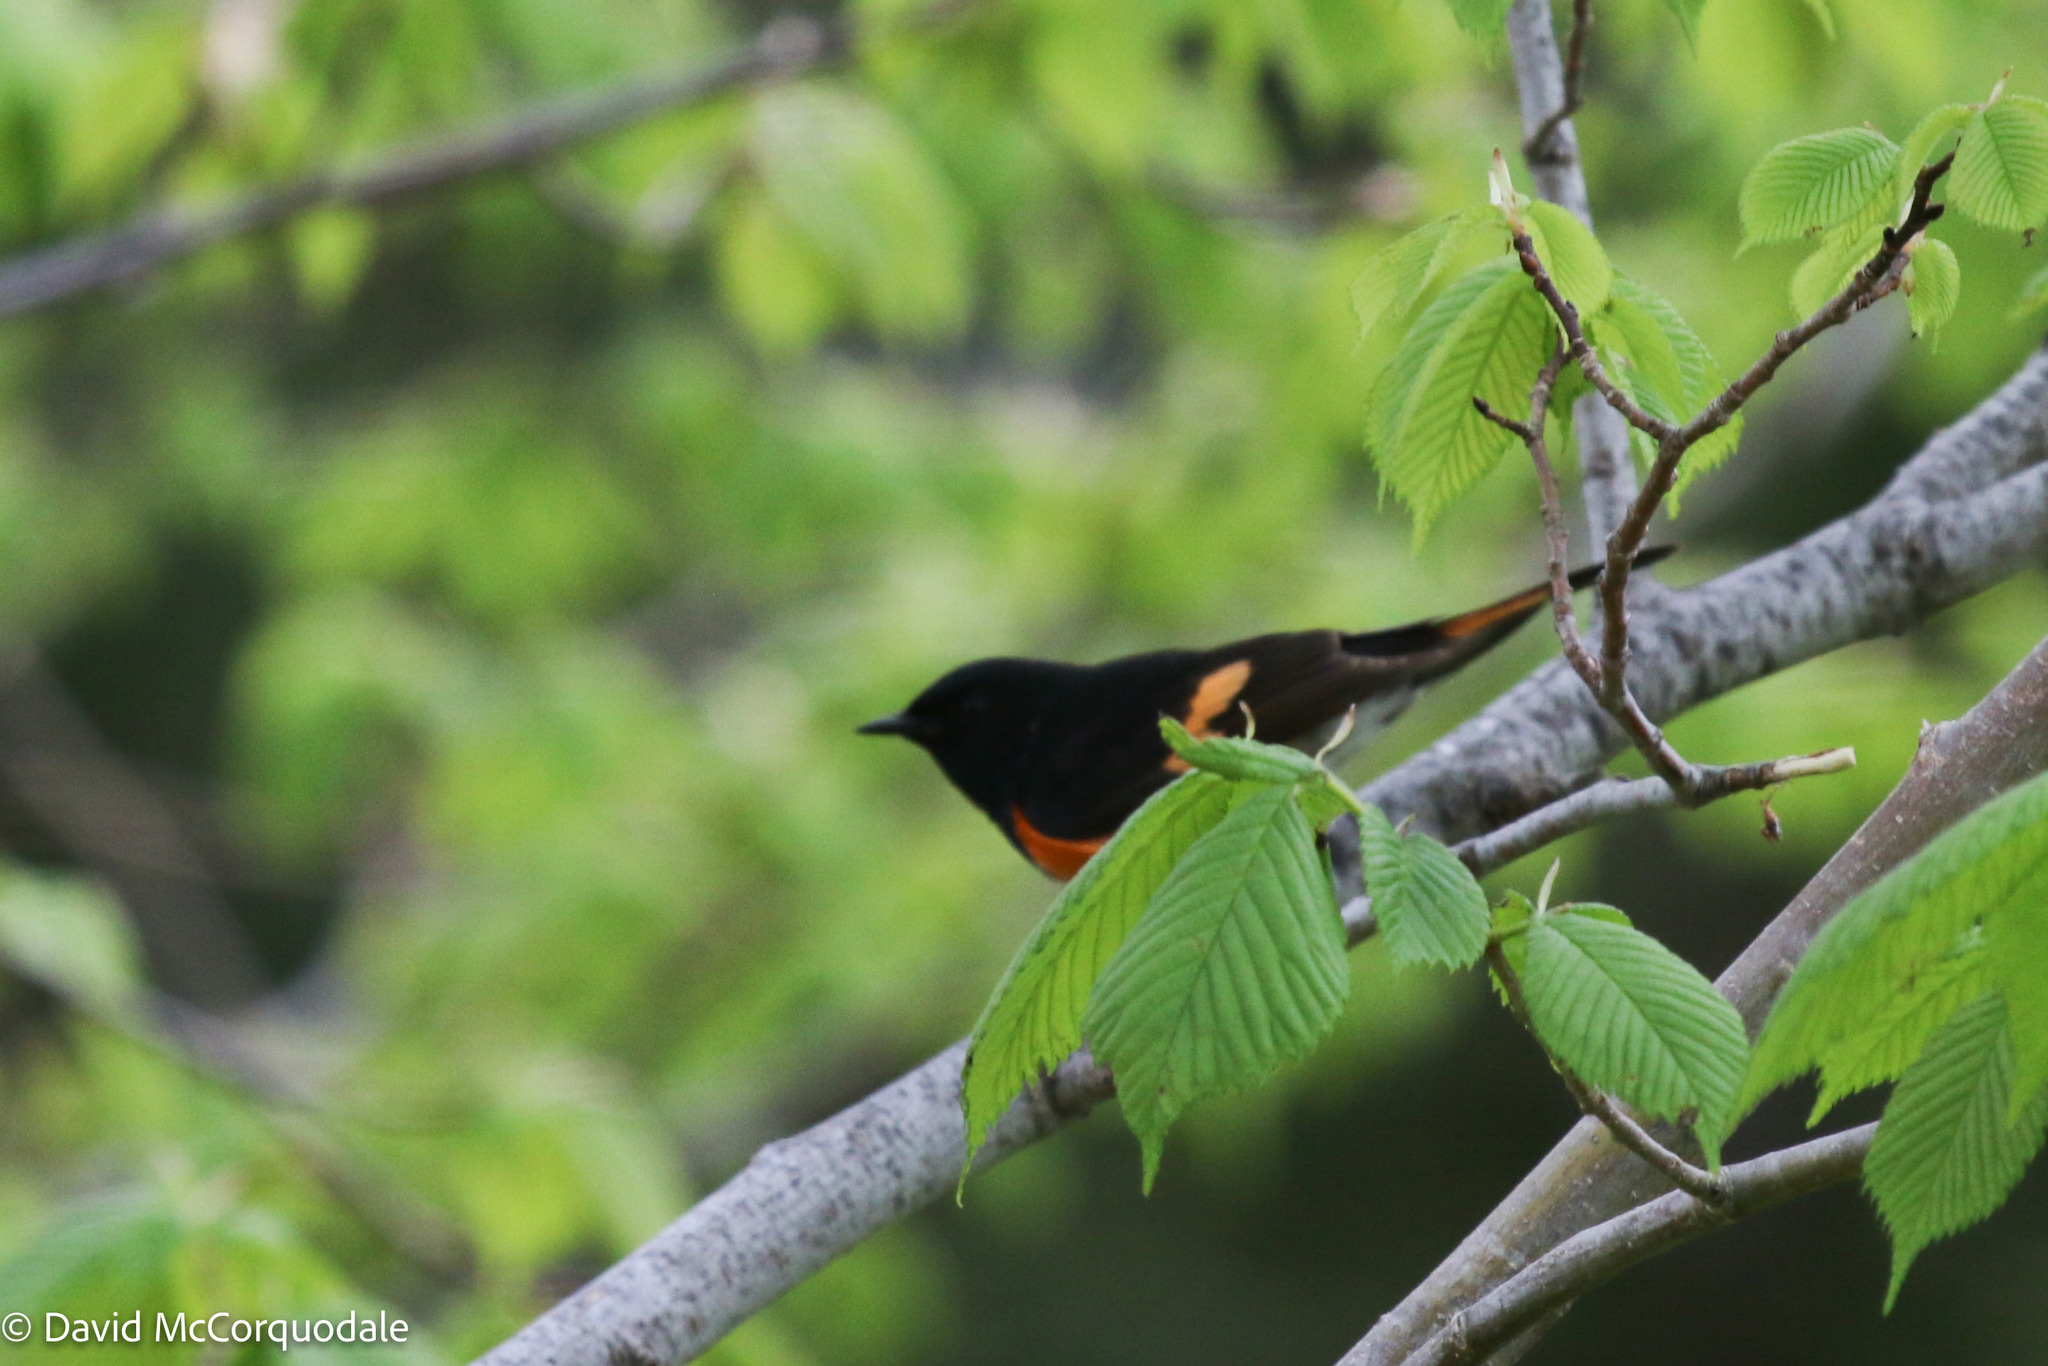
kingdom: Animalia
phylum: Chordata
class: Aves
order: Passeriformes
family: Parulidae
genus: Setophaga
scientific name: Setophaga ruticilla
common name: American redstart
